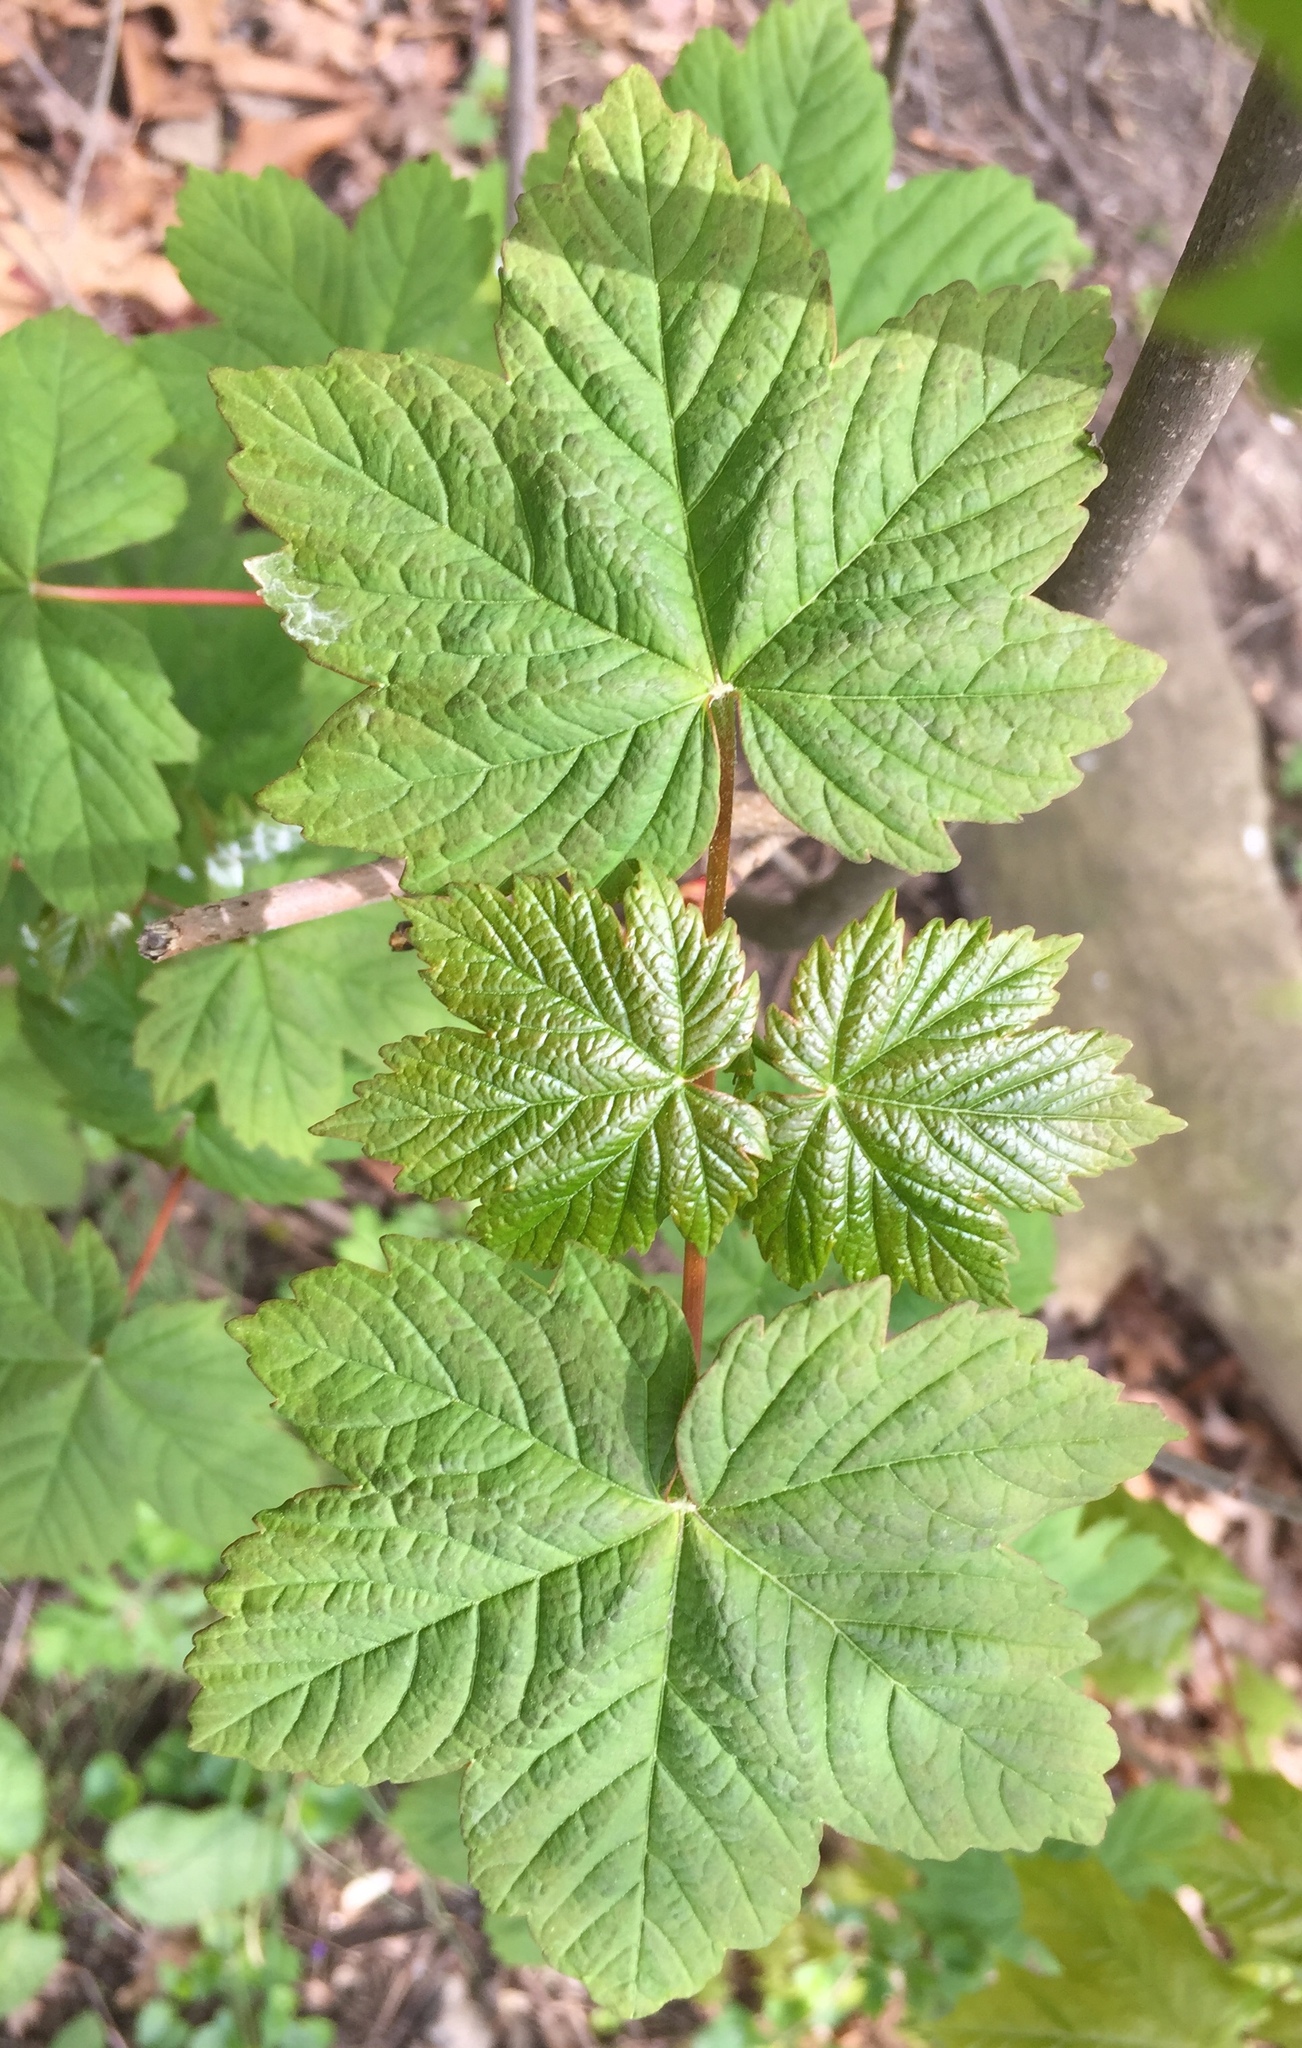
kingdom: Plantae
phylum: Tracheophyta
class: Magnoliopsida
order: Sapindales
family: Sapindaceae
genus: Acer
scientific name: Acer pseudoplatanus
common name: Sycamore
